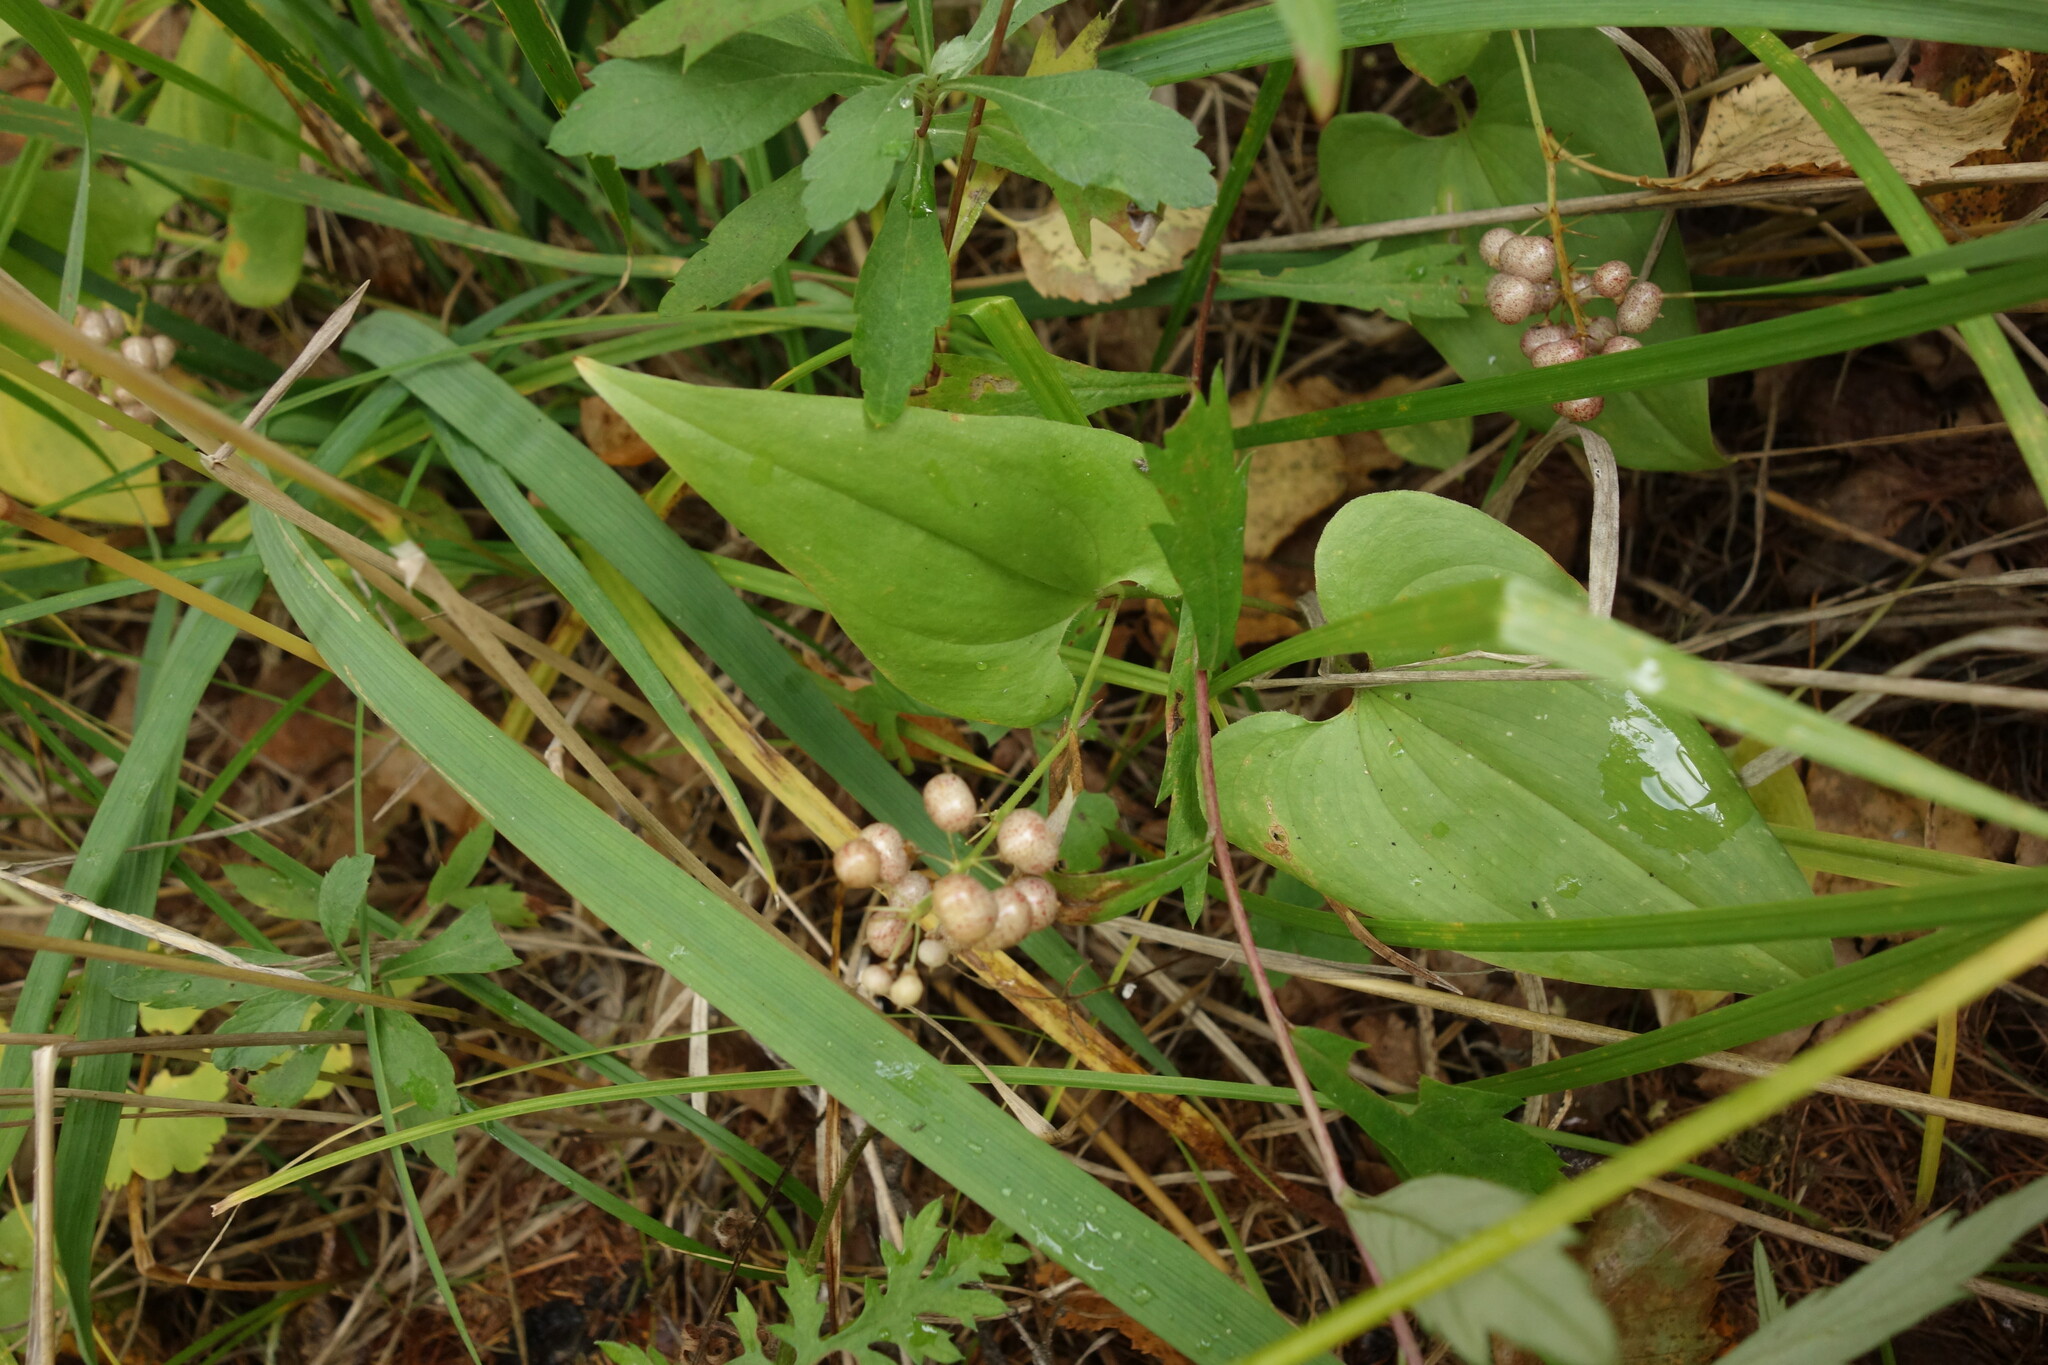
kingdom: Plantae
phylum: Tracheophyta
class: Liliopsida
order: Asparagales
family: Asparagaceae
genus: Maianthemum
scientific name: Maianthemum bifolium
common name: May lily
